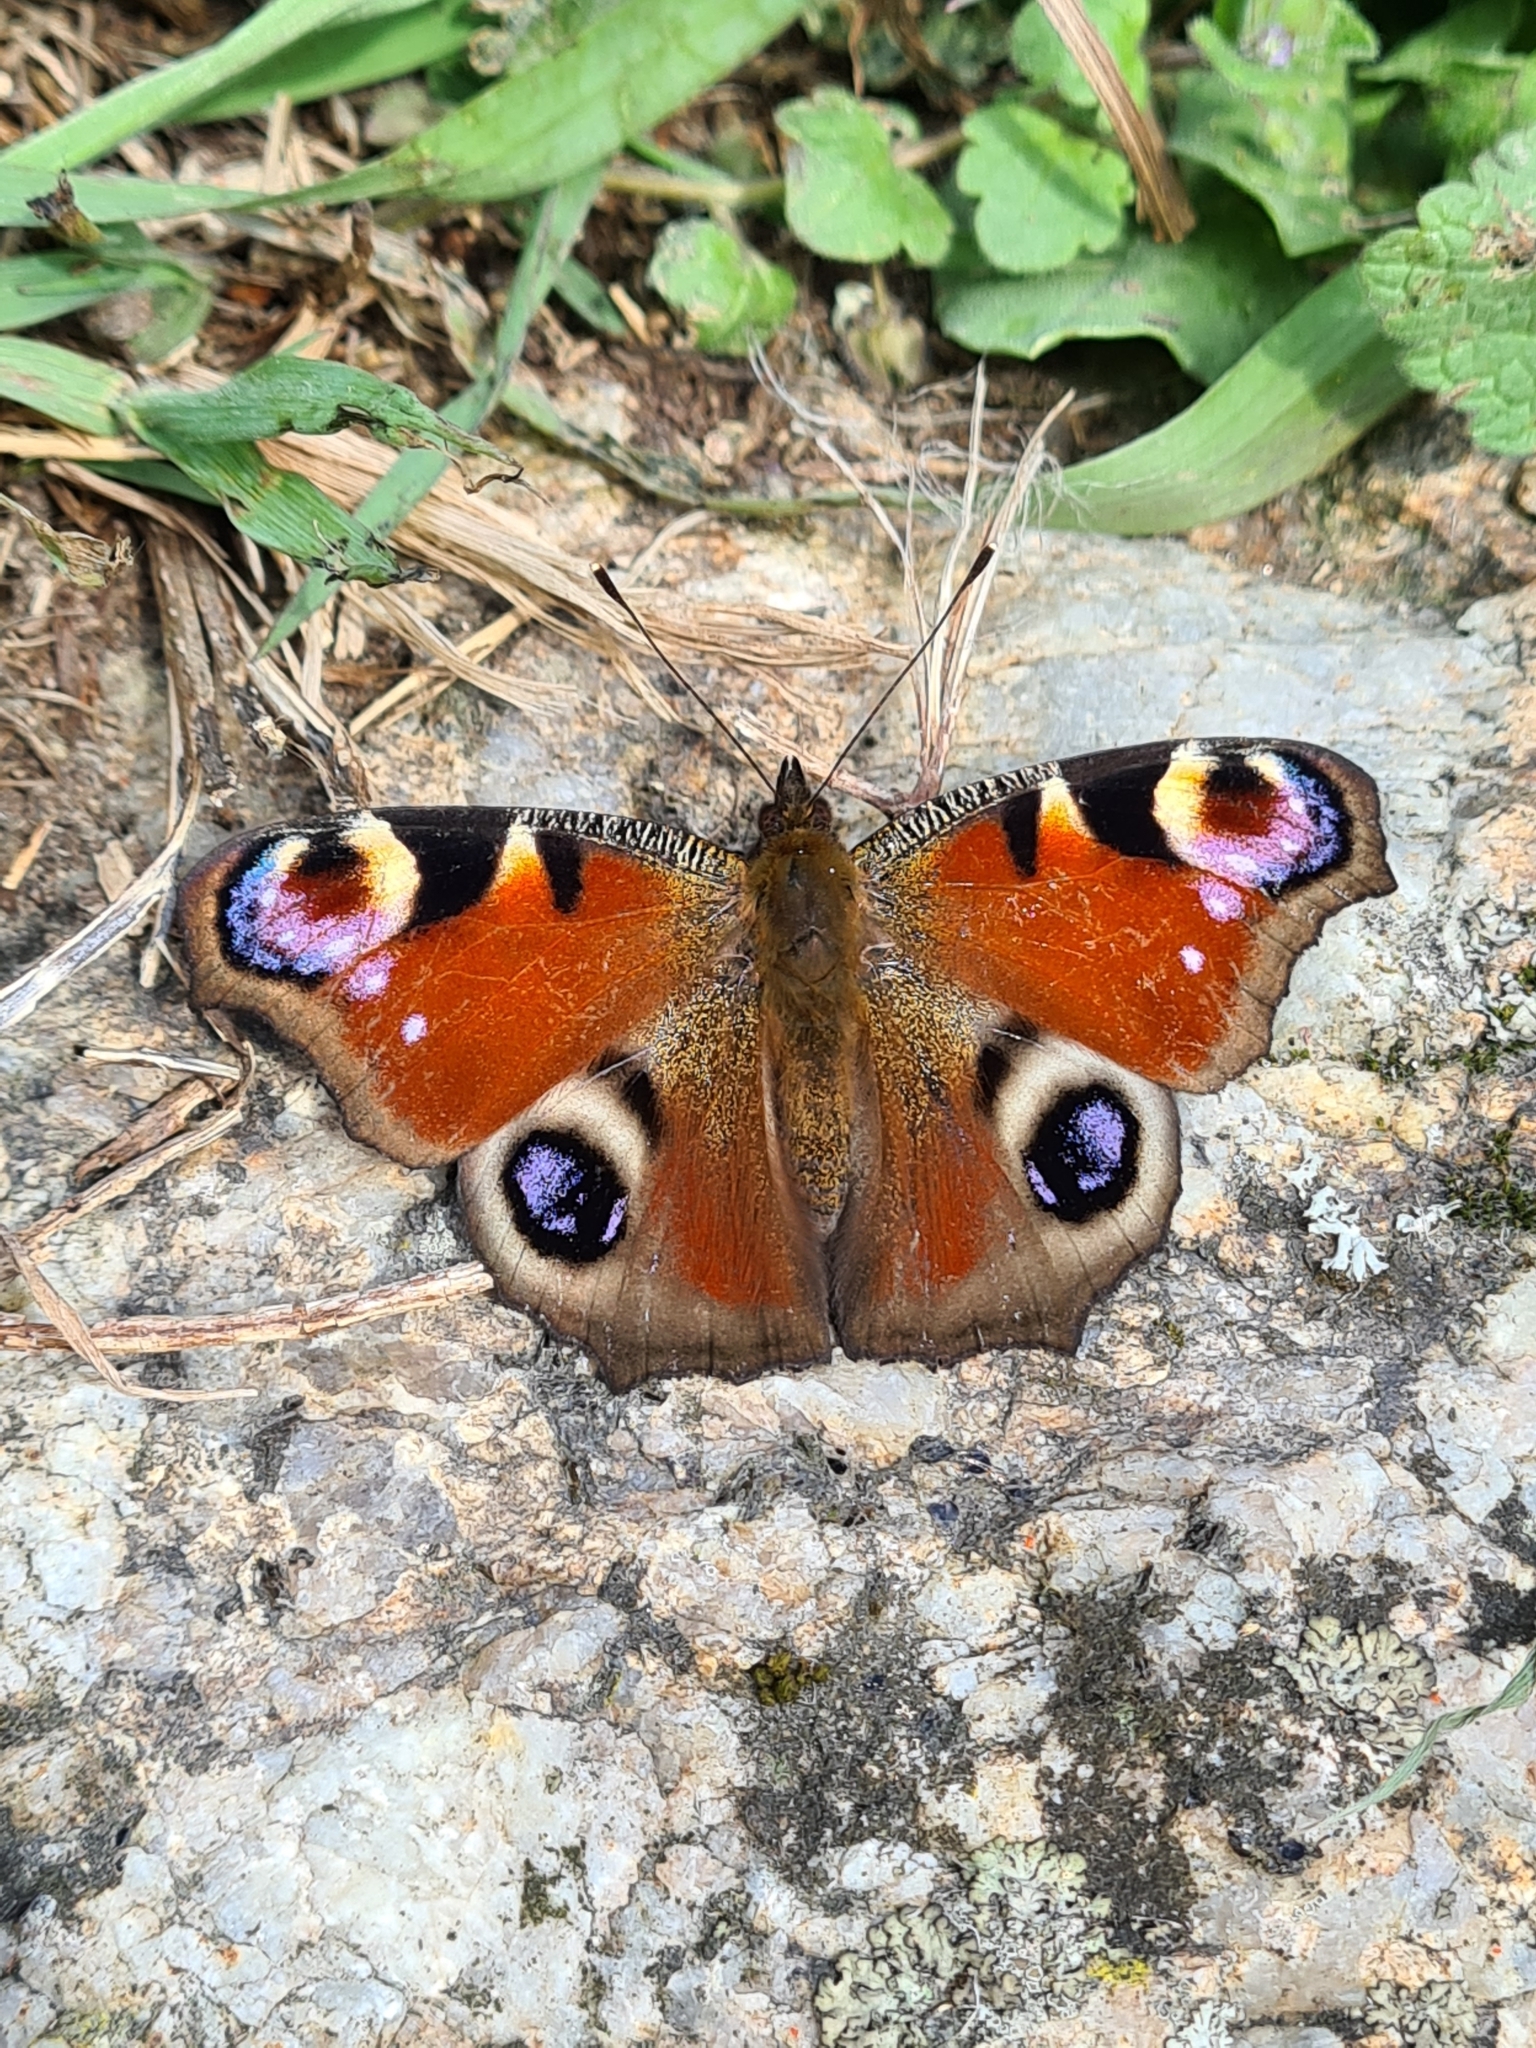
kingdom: Animalia
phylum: Arthropoda
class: Insecta
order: Lepidoptera
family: Nymphalidae
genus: Aglais
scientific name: Aglais io
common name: Peacock
